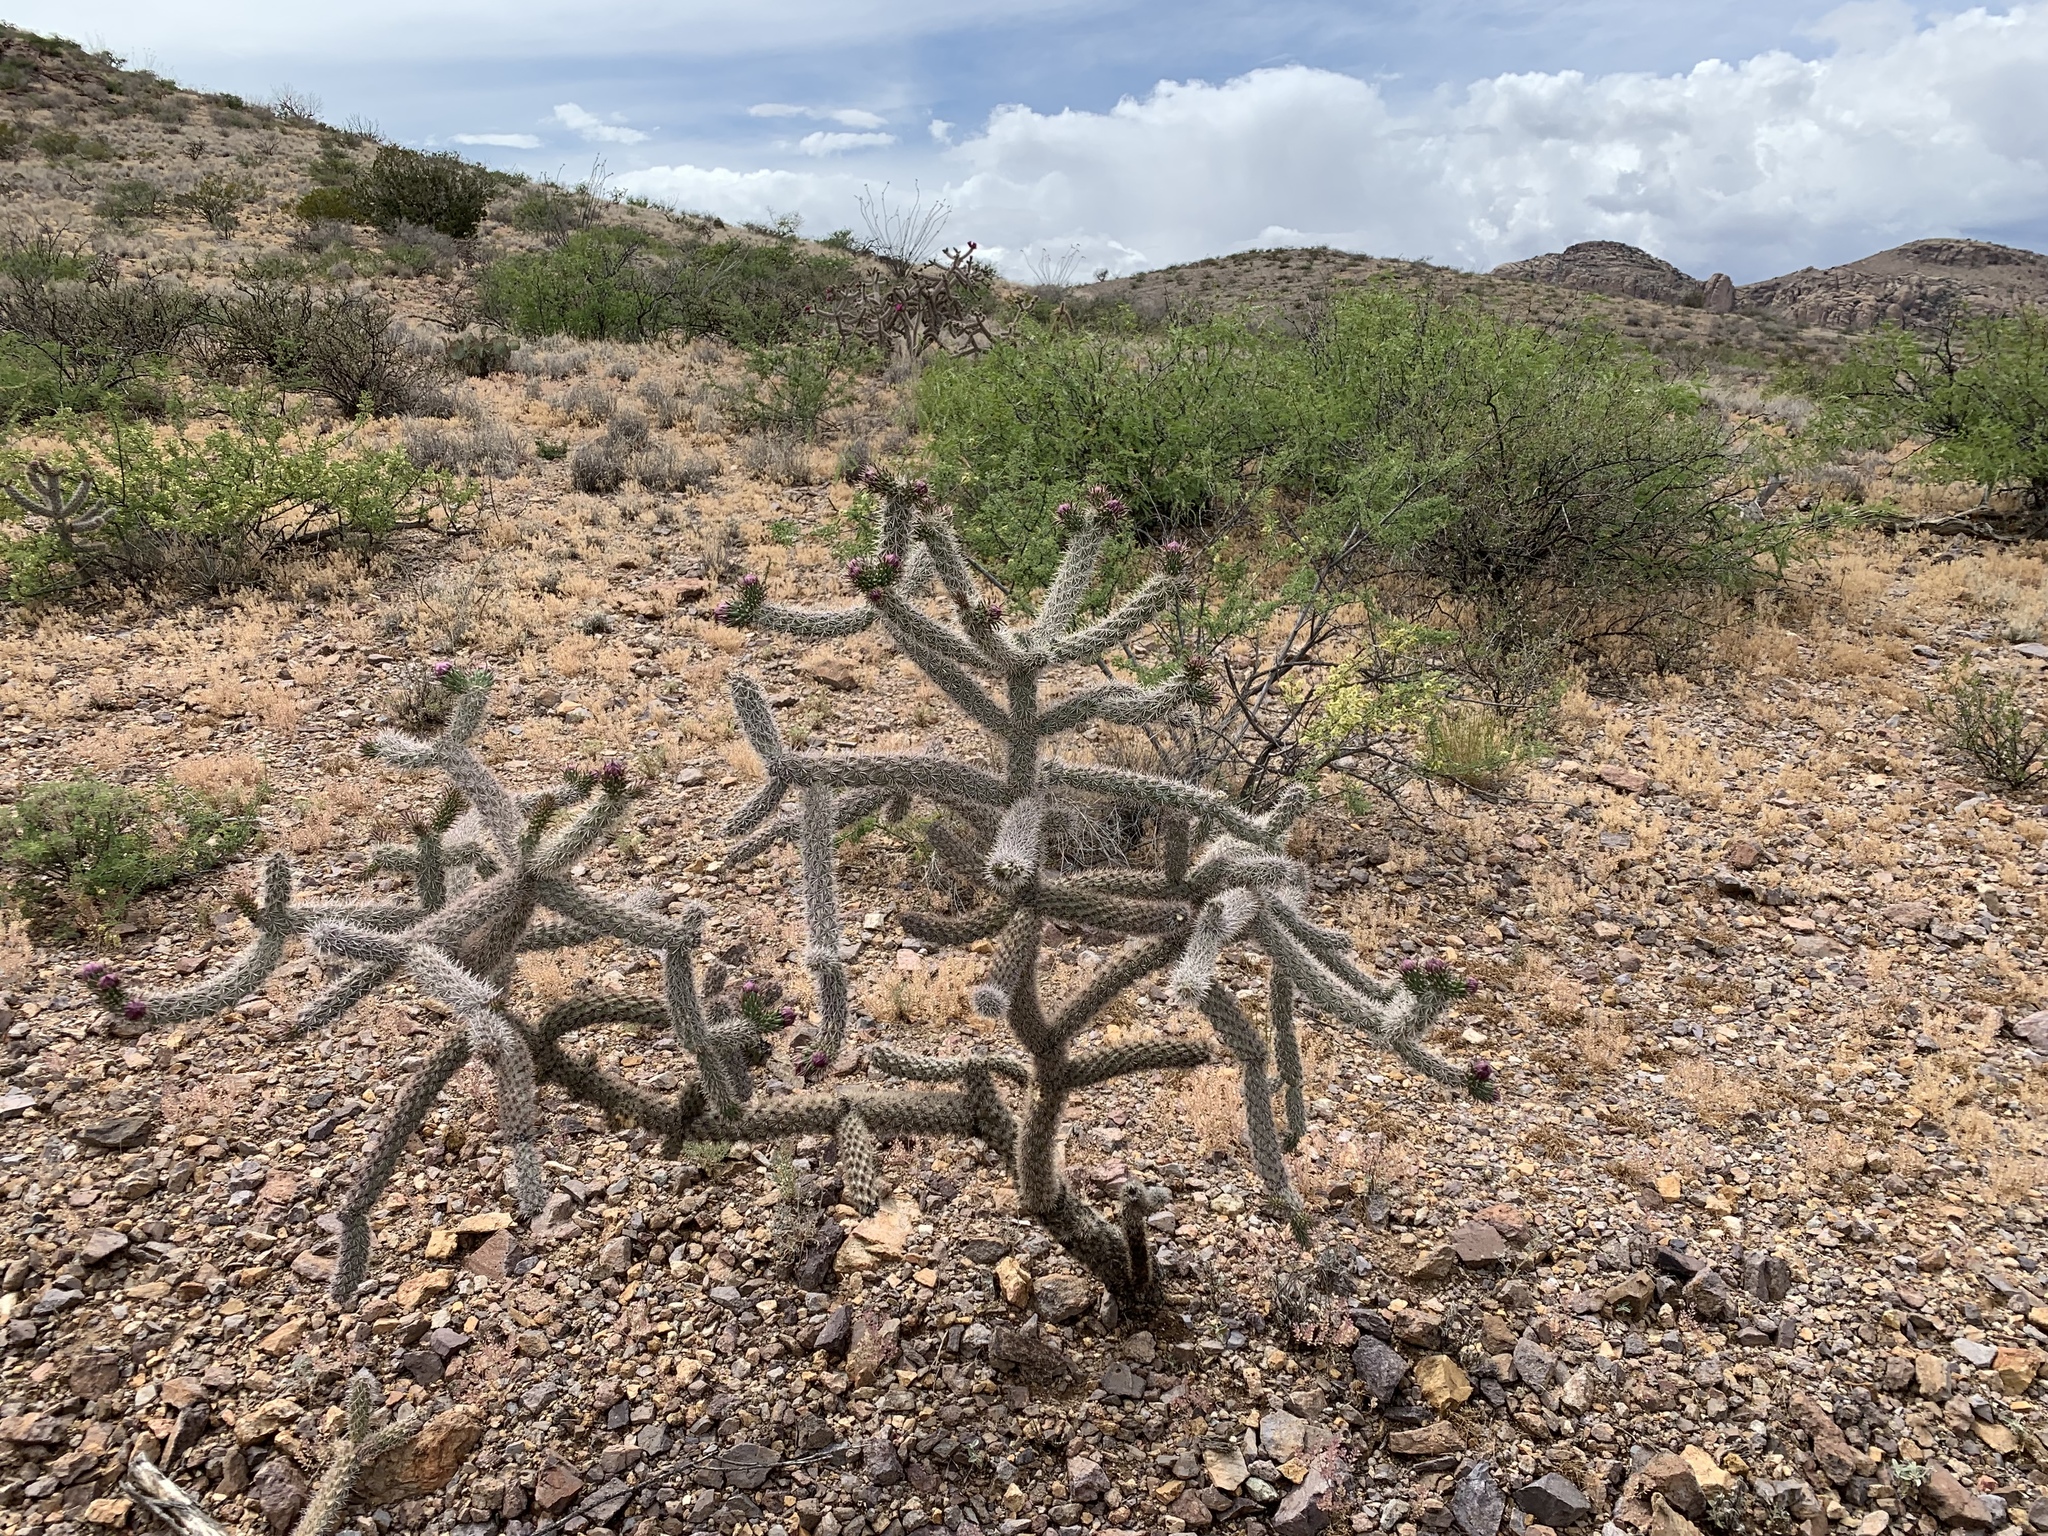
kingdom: Plantae
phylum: Tracheophyta
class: Magnoliopsida
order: Caryophyllales
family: Cactaceae
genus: Cylindropuntia
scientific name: Cylindropuntia imbricata
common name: Candelabrum cactus
